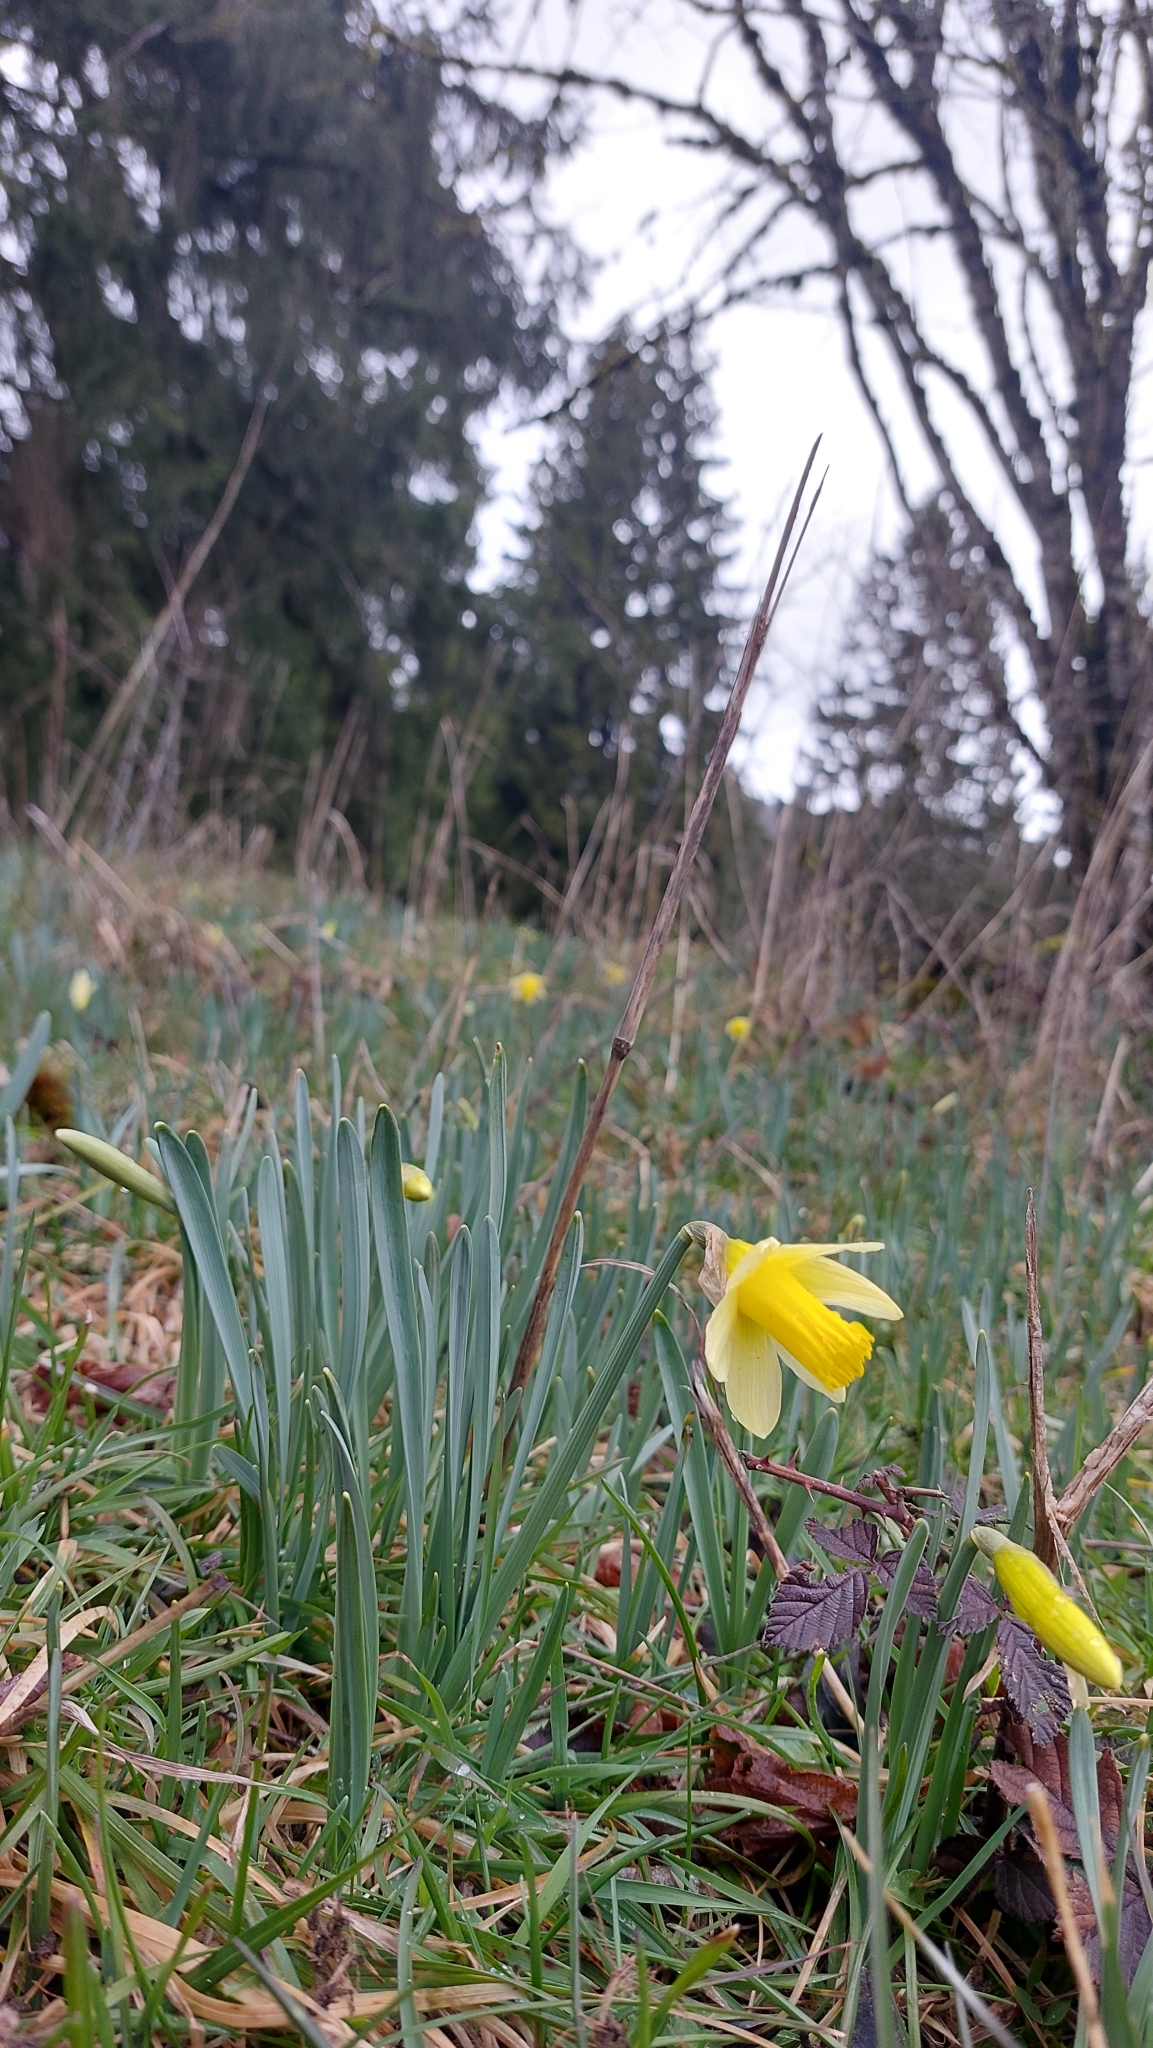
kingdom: Plantae
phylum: Tracheophyta
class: Liliopsida
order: Asparagales
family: Amaryllidaceae
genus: Narcissus
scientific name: Narcissus pseudonarcissus
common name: Daffodil
